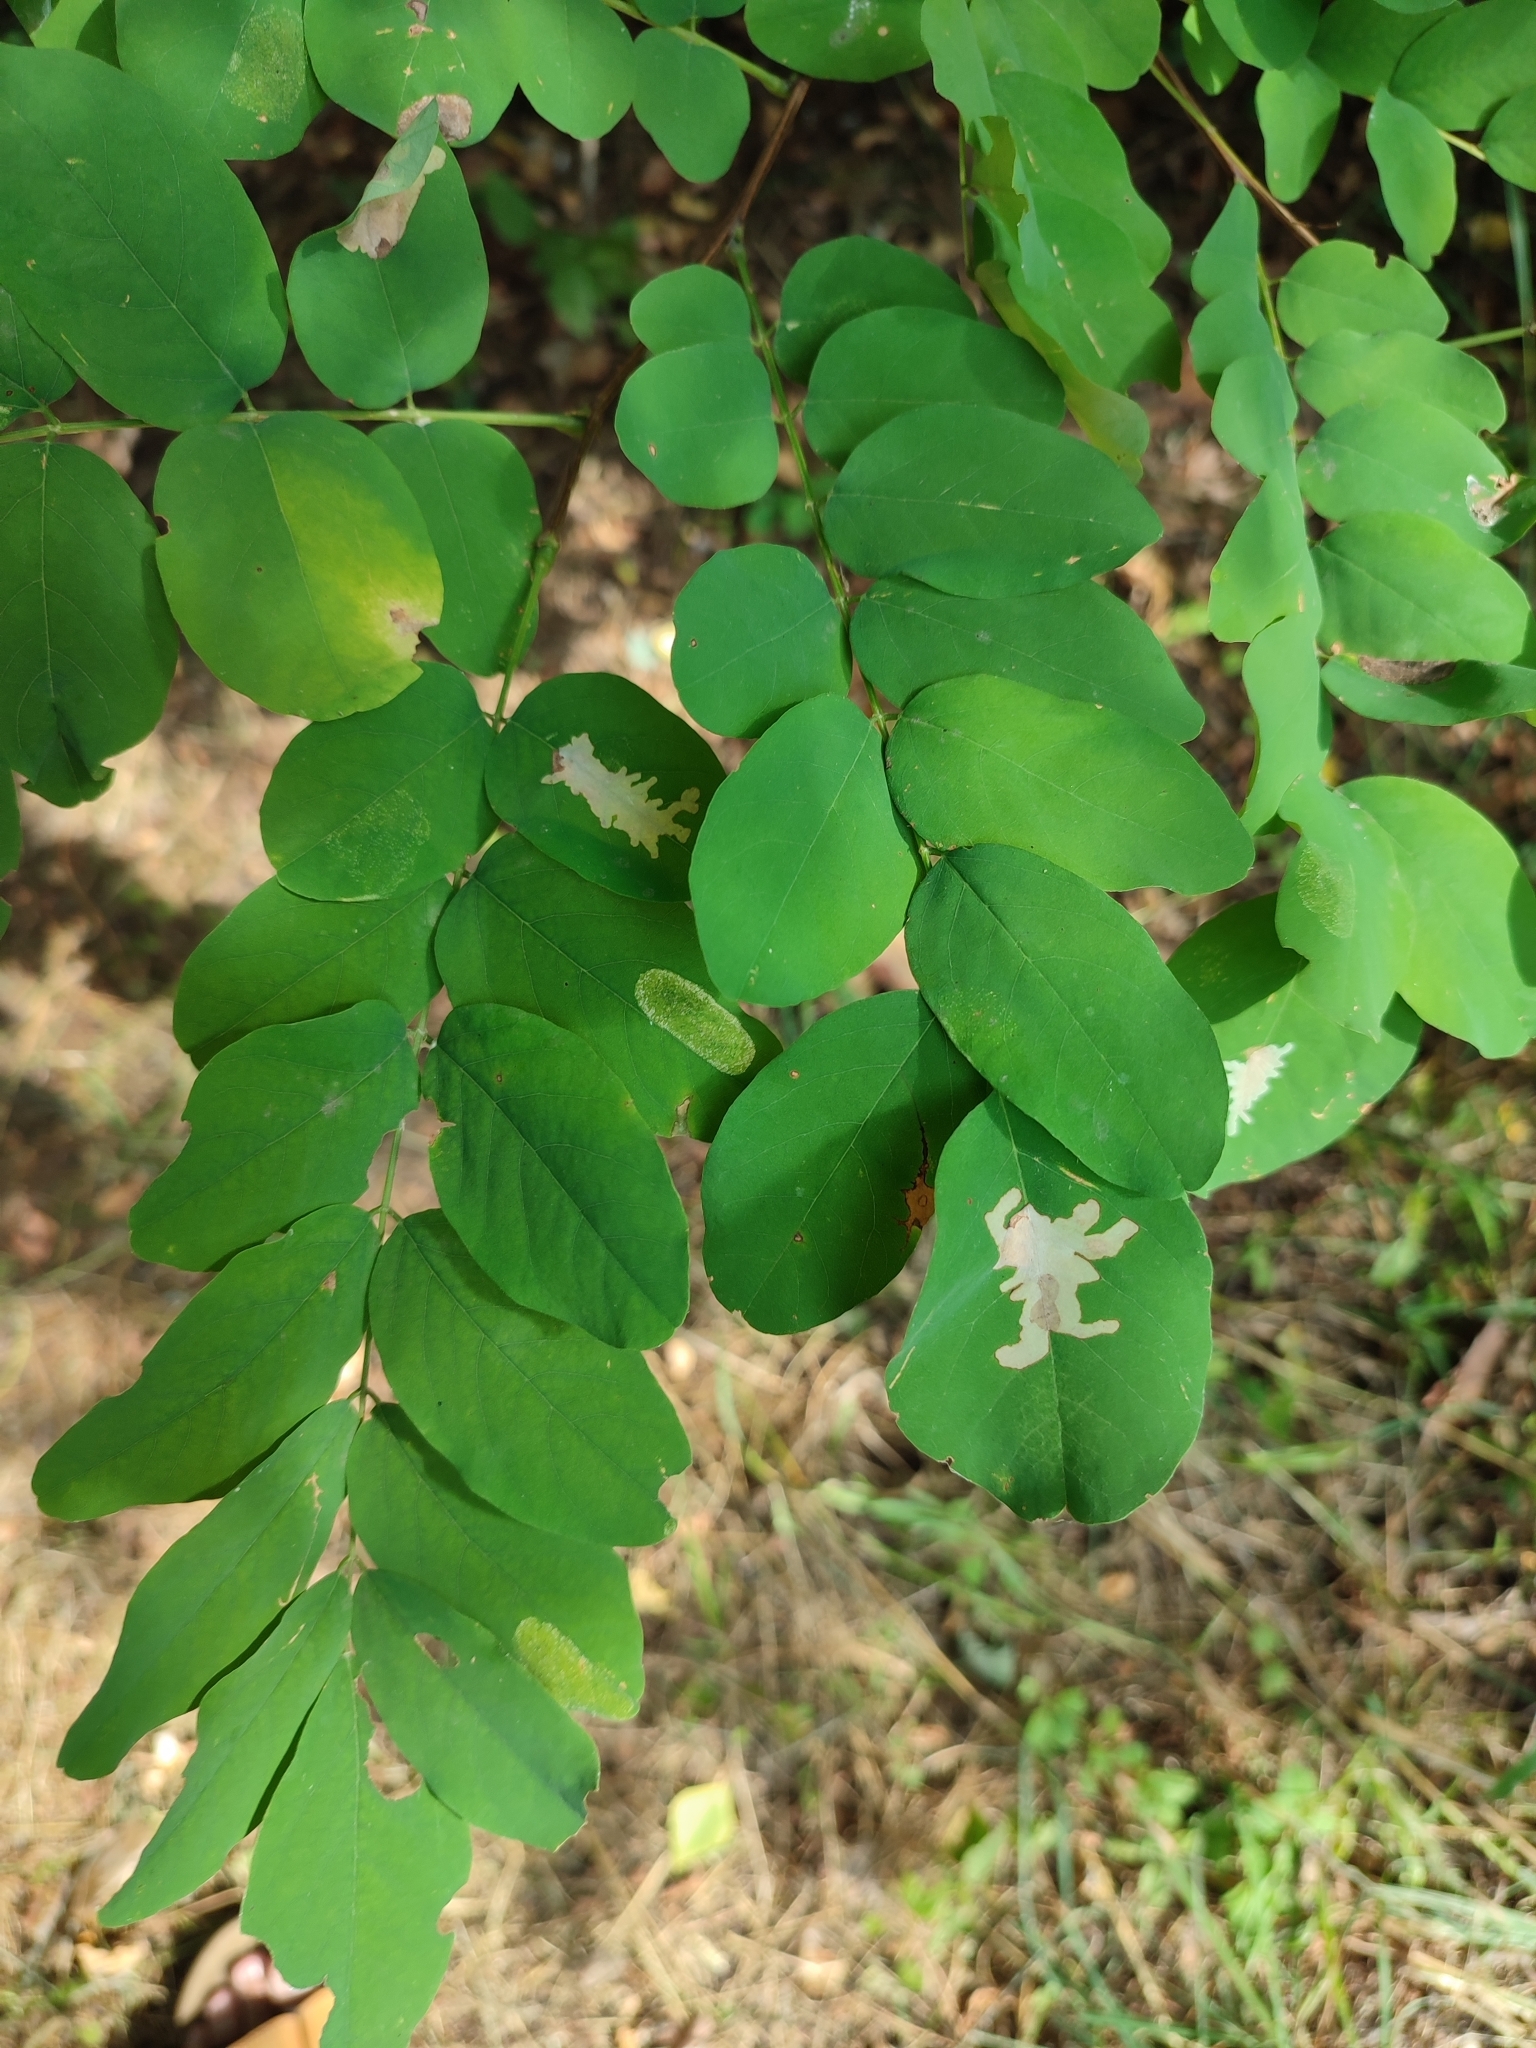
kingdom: Animalia
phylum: Arthropoda
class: Insecta
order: Lepidoptera
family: Gracillariidae
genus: Parectopa
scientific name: Parectopa robiniella
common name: Locust digitate leafminer
